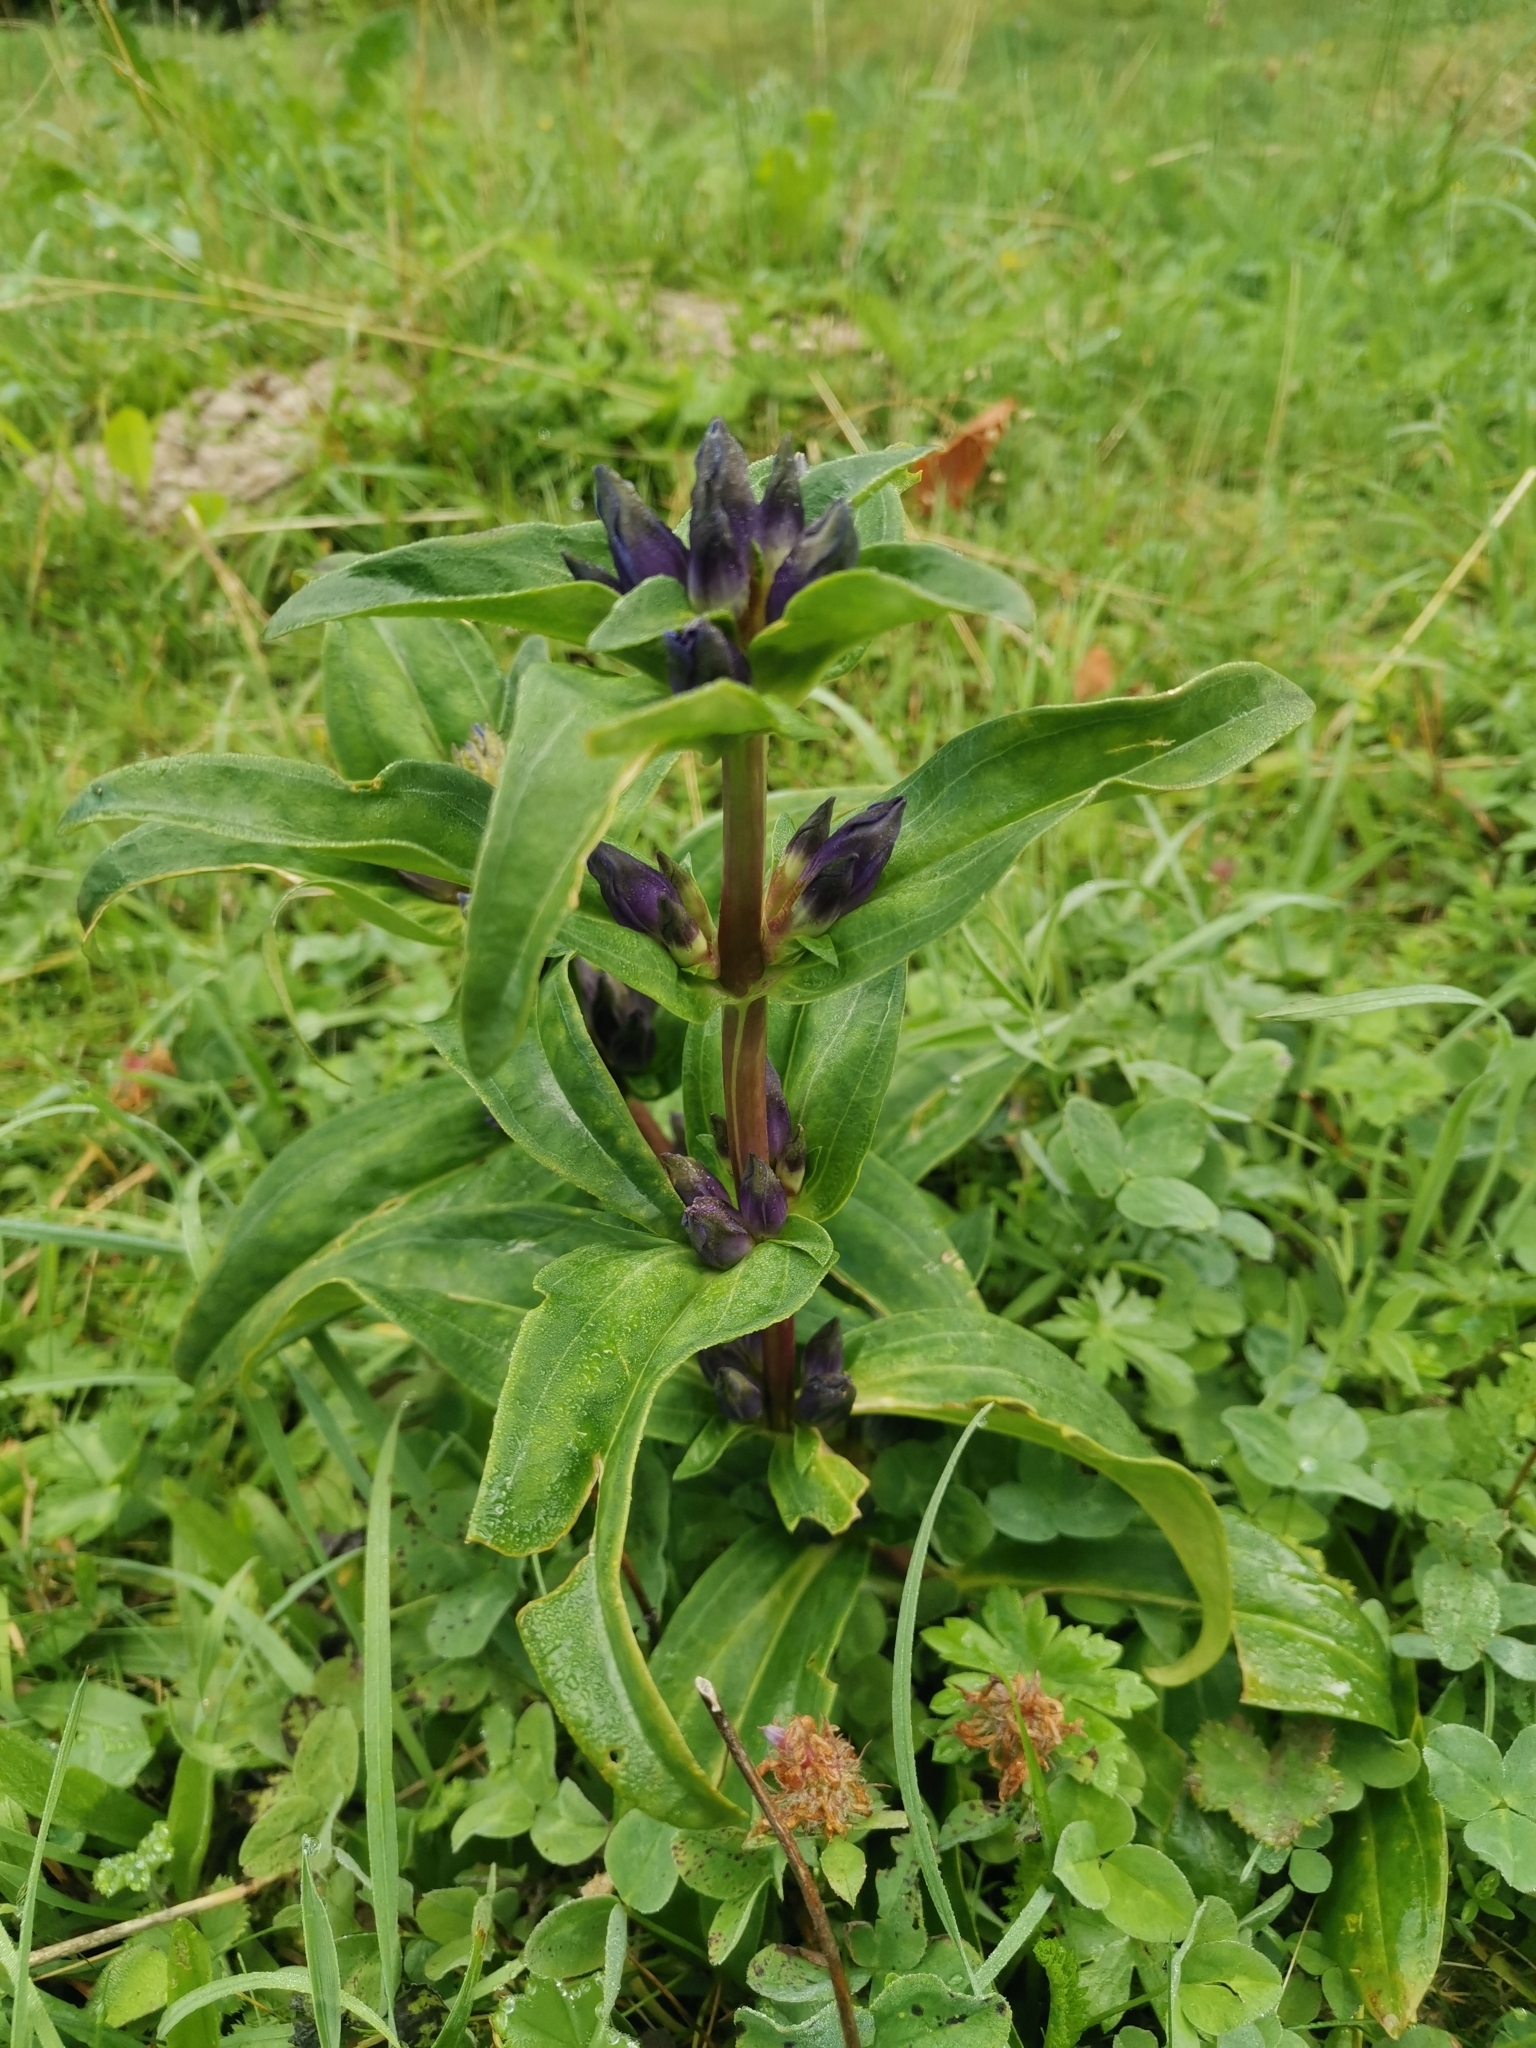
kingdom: Plantae
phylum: Tracheophyta
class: Magnoliopsida
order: Gentianales
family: Gentianaceae
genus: Gentiana
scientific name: Gentiana cruciata
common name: Cross gentian
